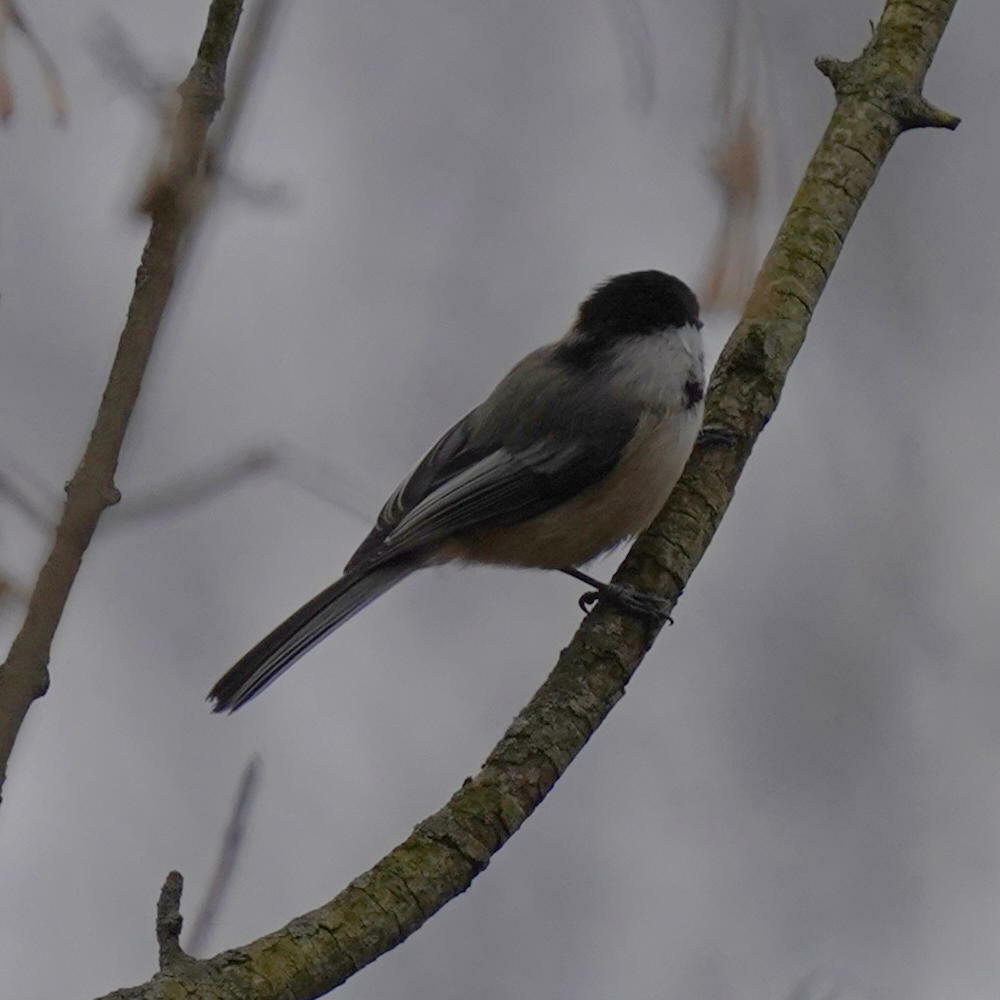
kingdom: Animalia
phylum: Chordata
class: Aves
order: Passeriformes
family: Paridae
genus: Poecile
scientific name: Poecile atricapillus
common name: Black-capped chickadee
